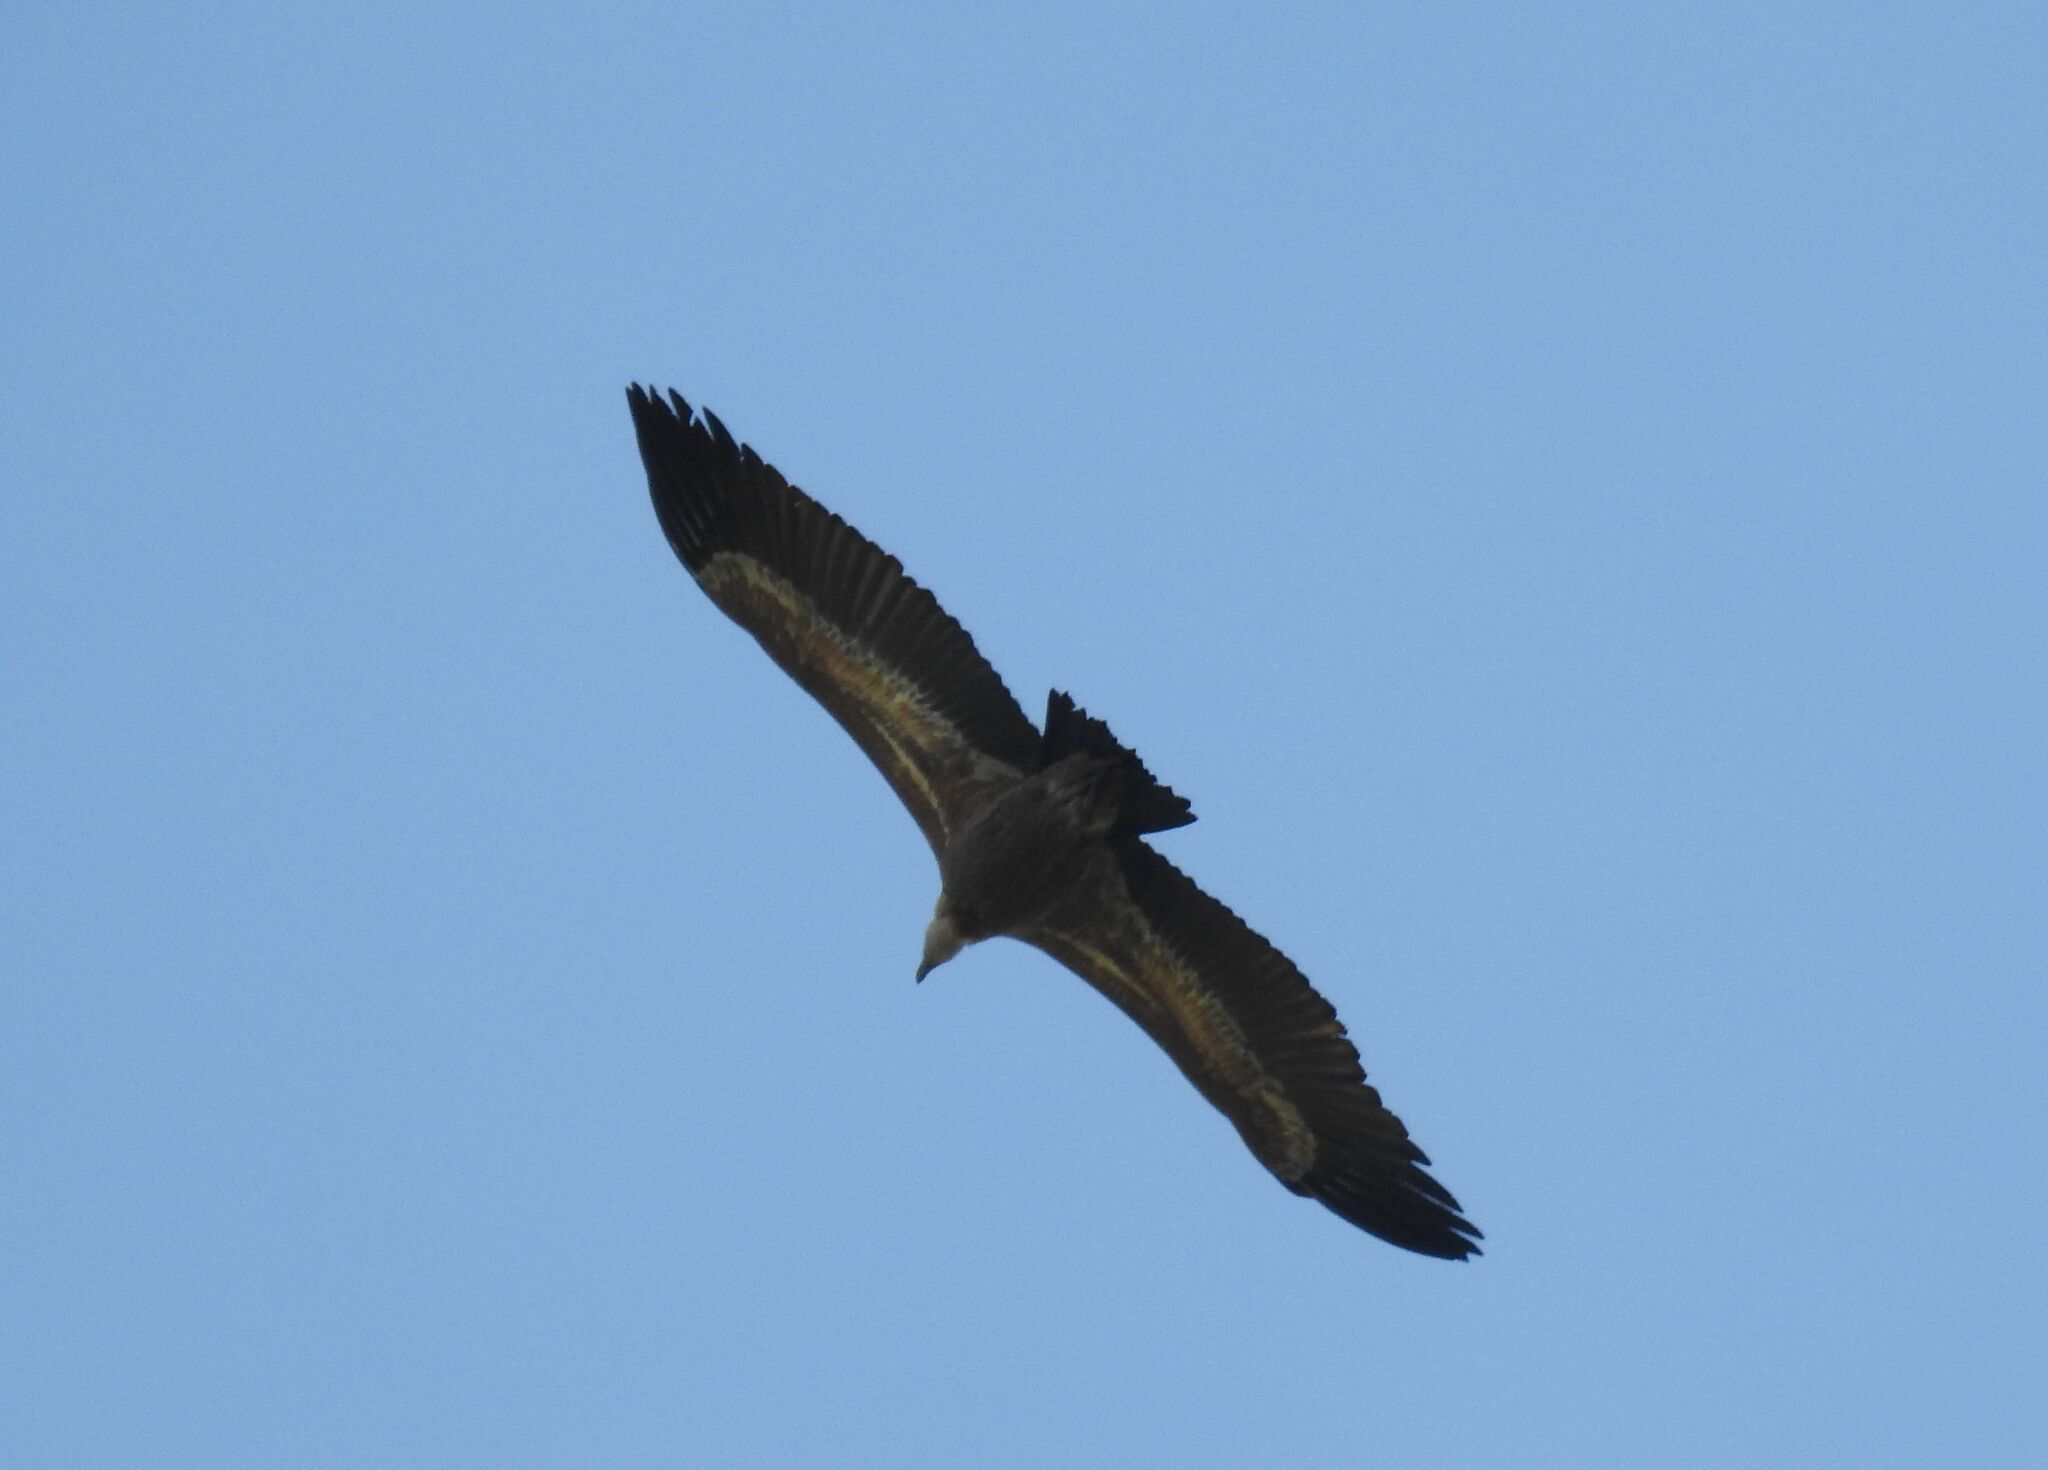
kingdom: Animalia
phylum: Chordata
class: Aves
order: Accipitriformes
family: Accipitridae
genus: Gyps
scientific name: Gyps fulvus
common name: Griffon vulture
